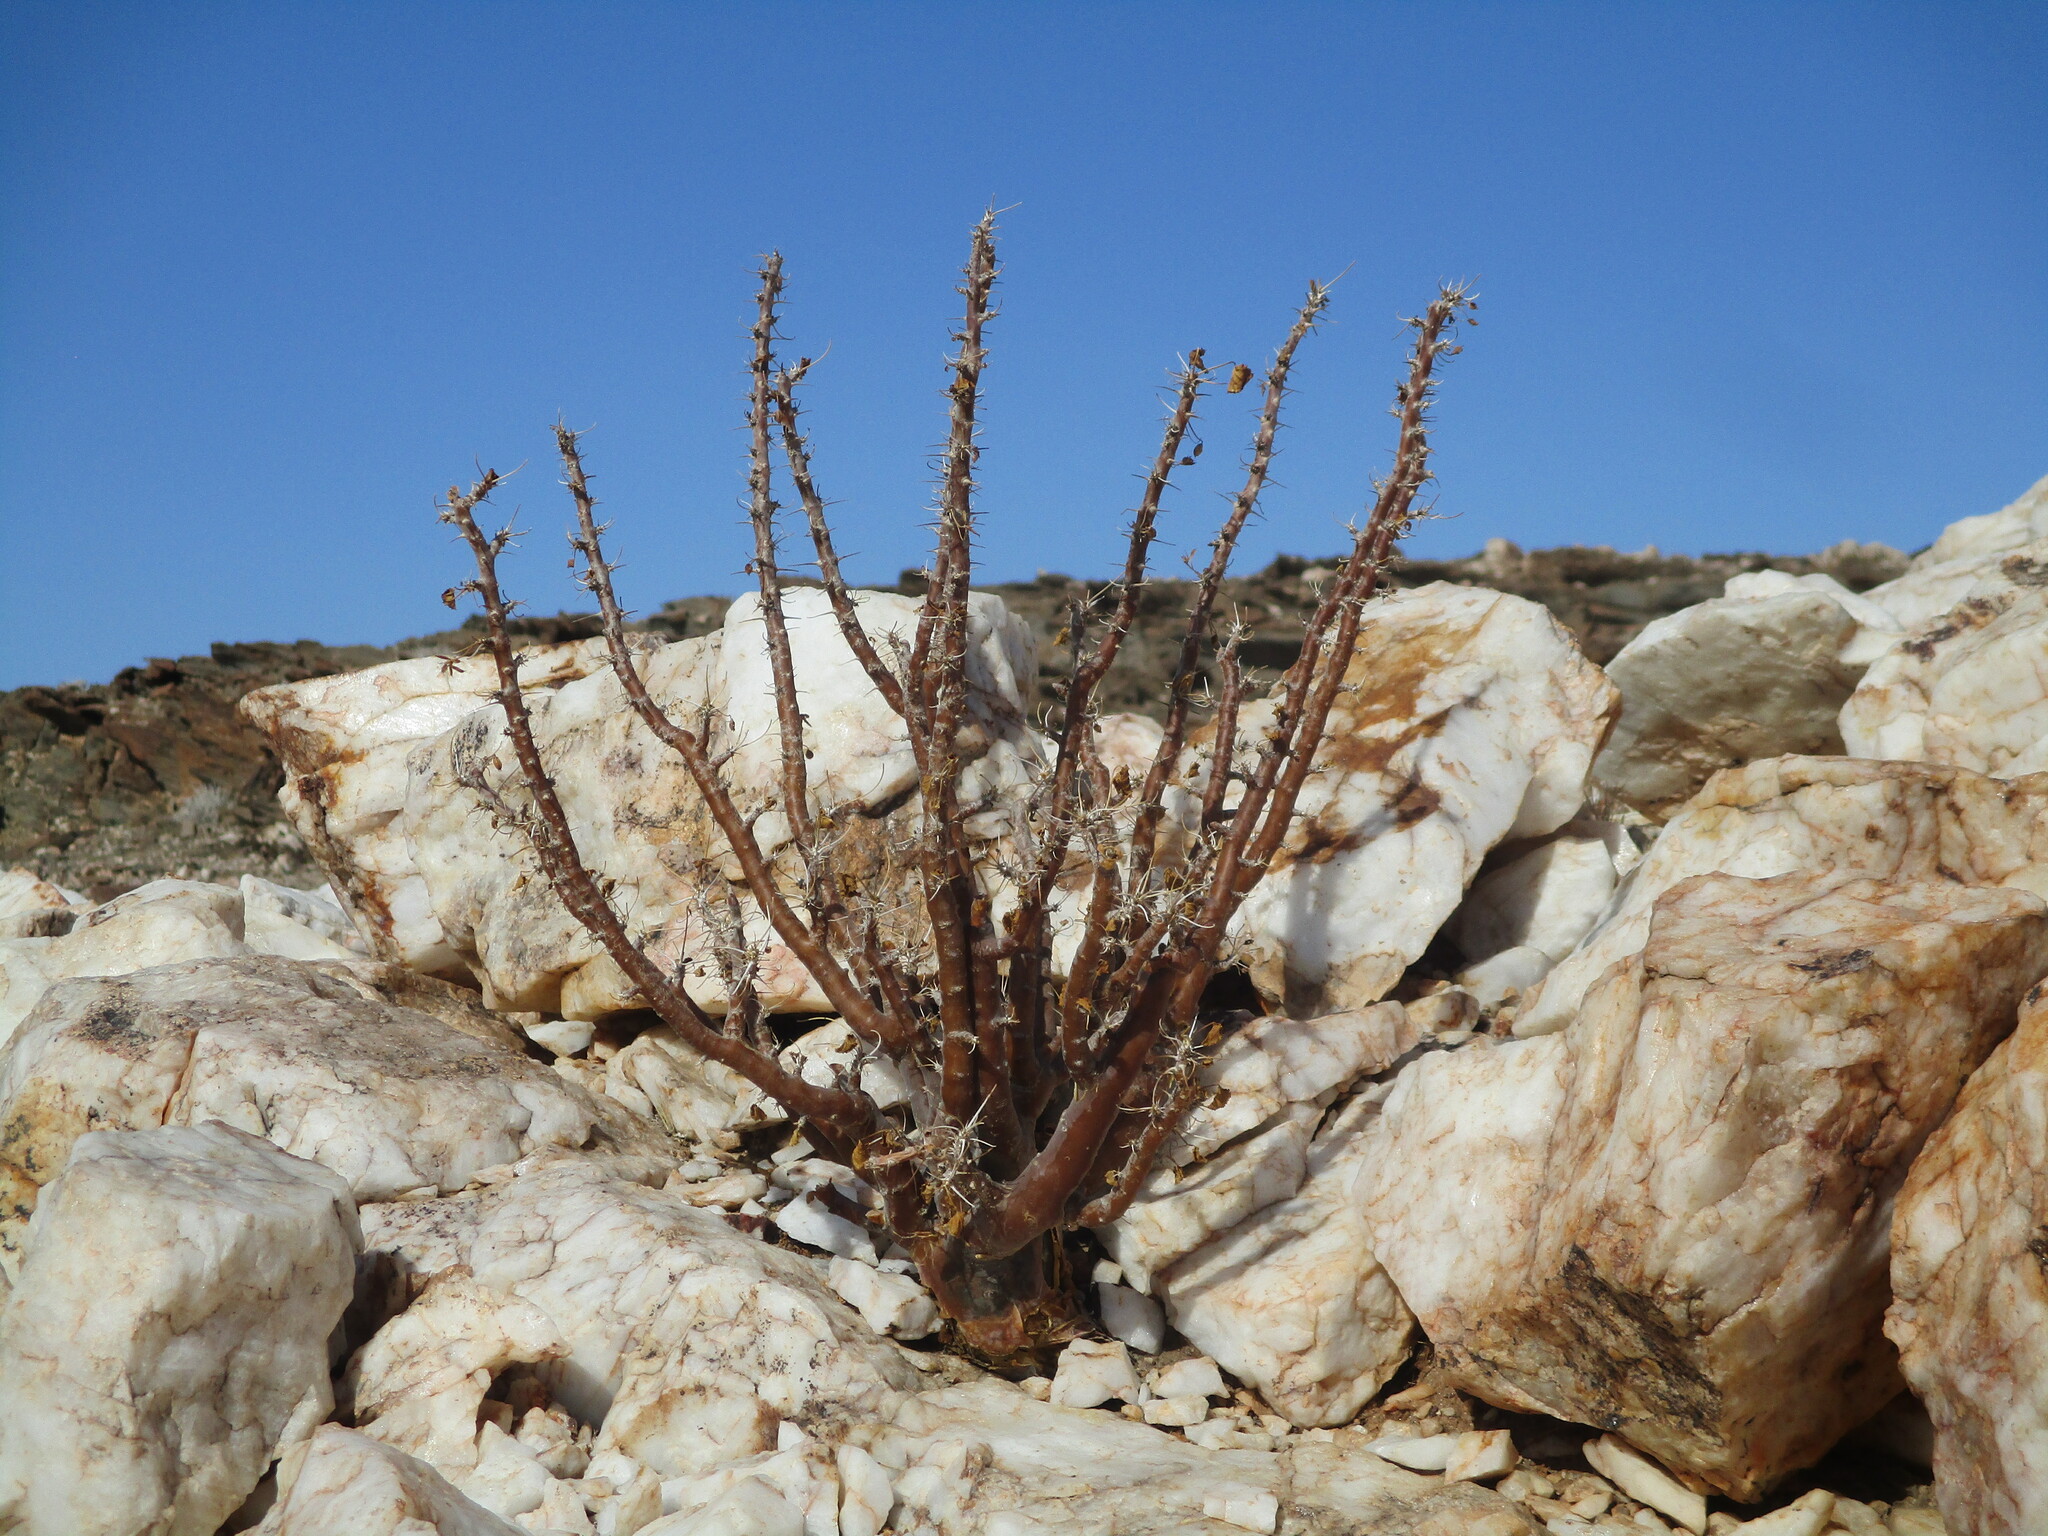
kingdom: Plantae
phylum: Tracheophyta
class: Magnoliopsida
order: Geraniales
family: Geraniaceae
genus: Monsonia
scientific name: Monsonia marlothii
